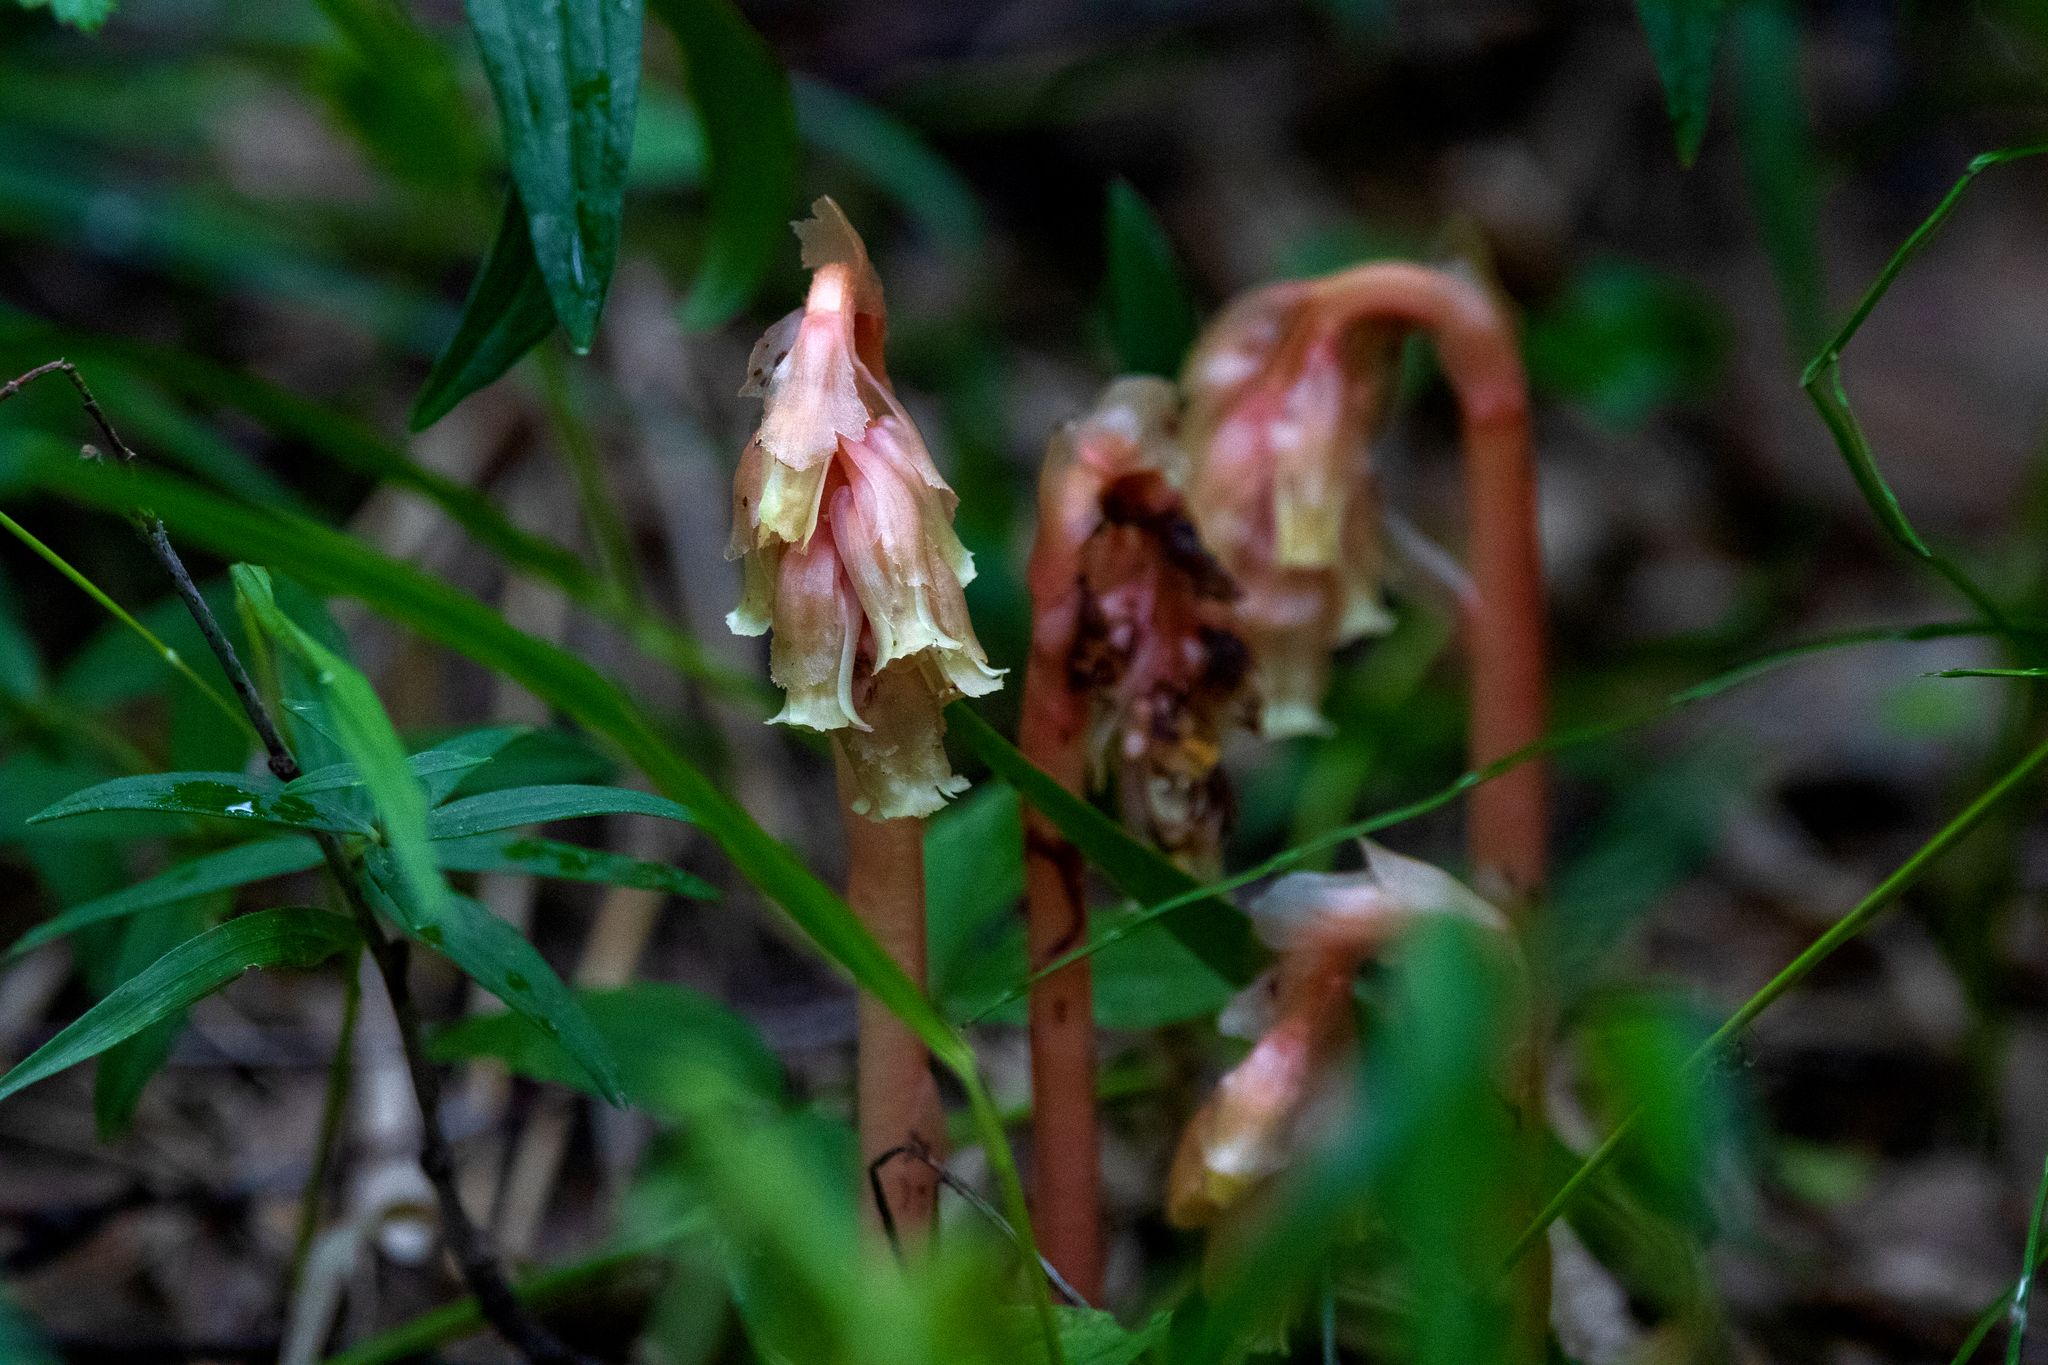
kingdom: Plantae
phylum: Tracheophyta
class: Magnoliopsida
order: Ericales
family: Ericaceae
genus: Hypopitys
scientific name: Hypopitys monotropa
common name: Yellow bird's-nest
